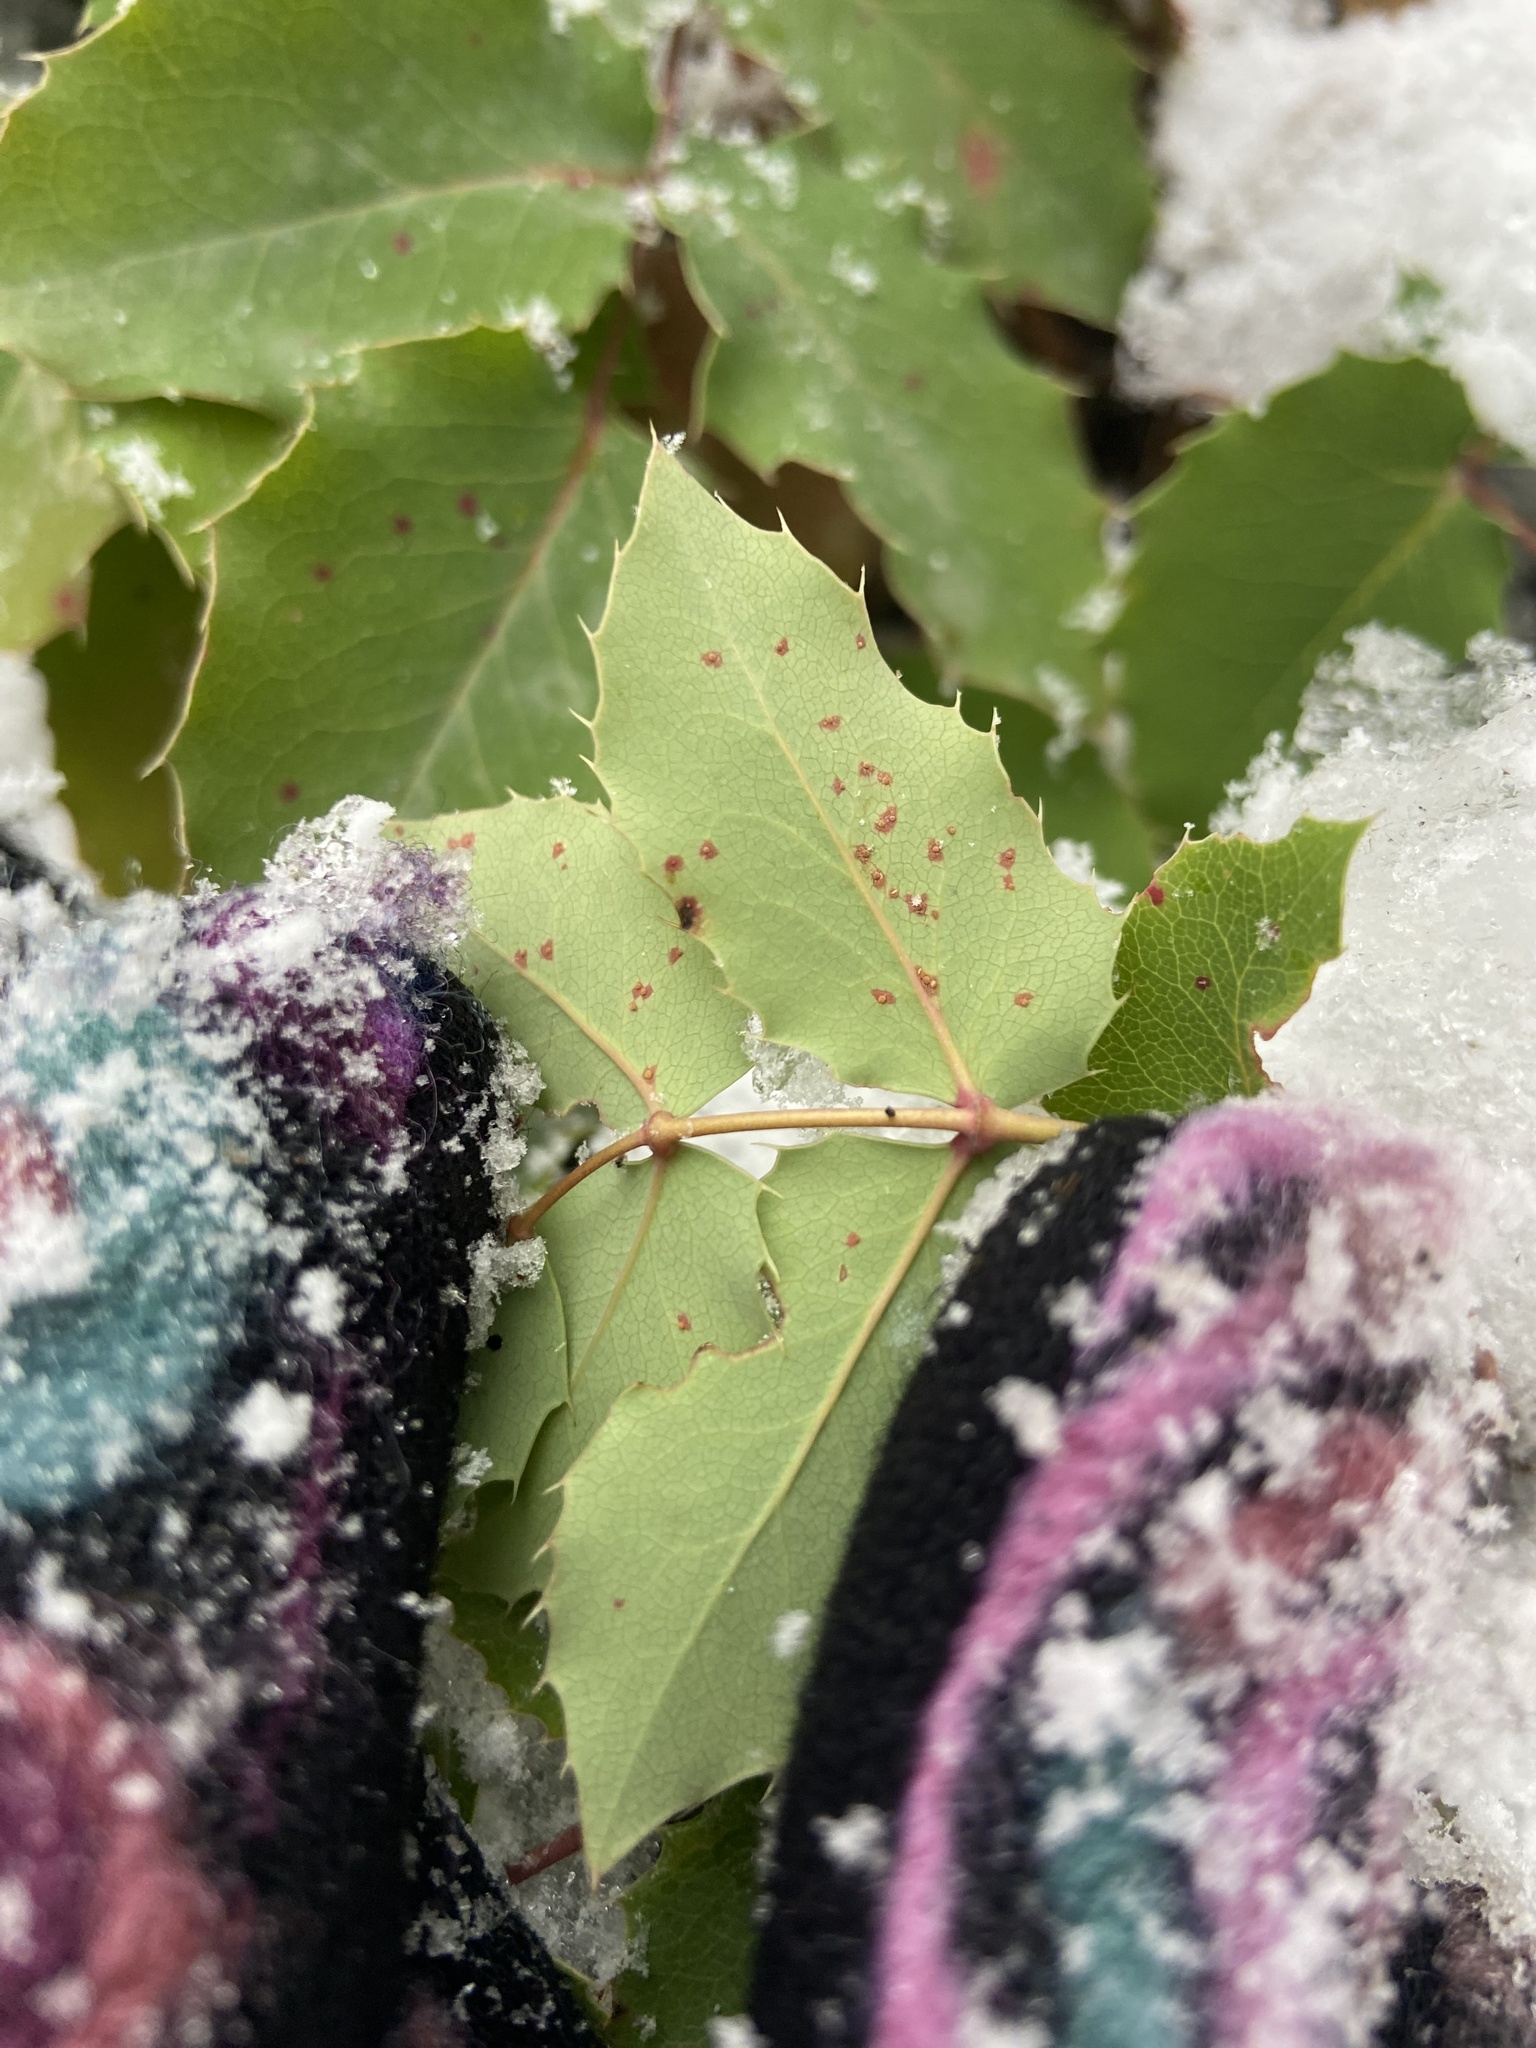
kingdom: Plantae
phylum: Tracheophyta
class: Magnoliopsida
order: Ranunculales
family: Berberidaceae
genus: Mahonia
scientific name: Mahonia repens
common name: Creeping oregon-grape
